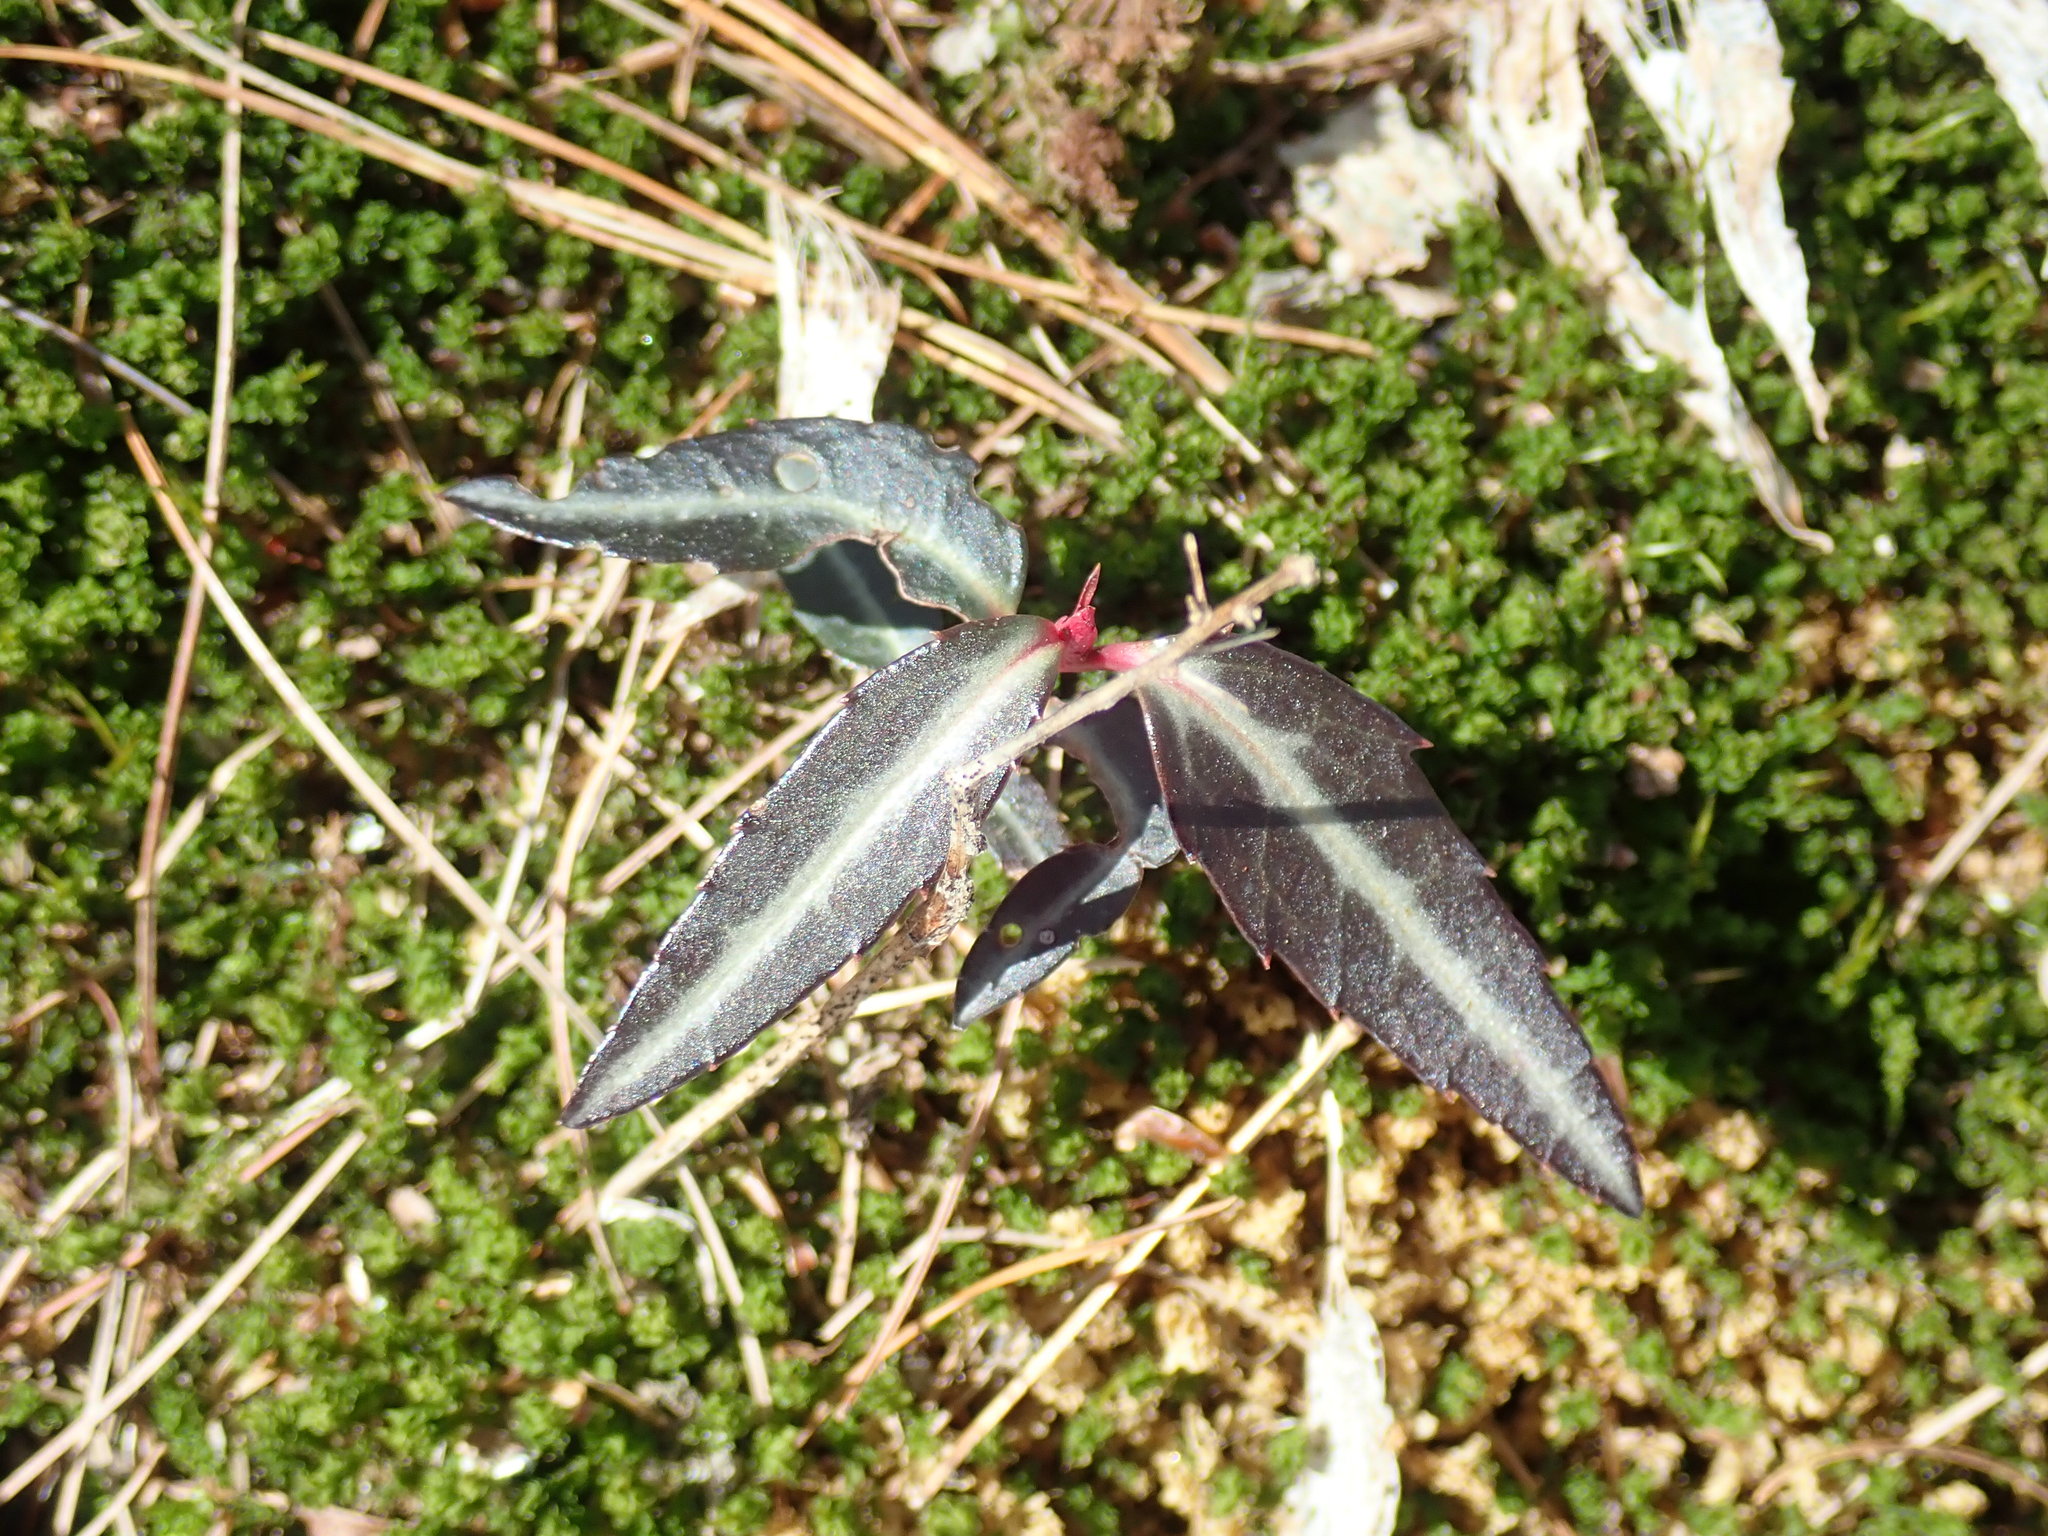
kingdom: Plantae
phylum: Tracheophyta
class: Magnoliopsida
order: Ericales
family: Ericaceae
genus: Chimaphila
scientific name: Chimaphila maculata
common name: Spotted pipsissewa
